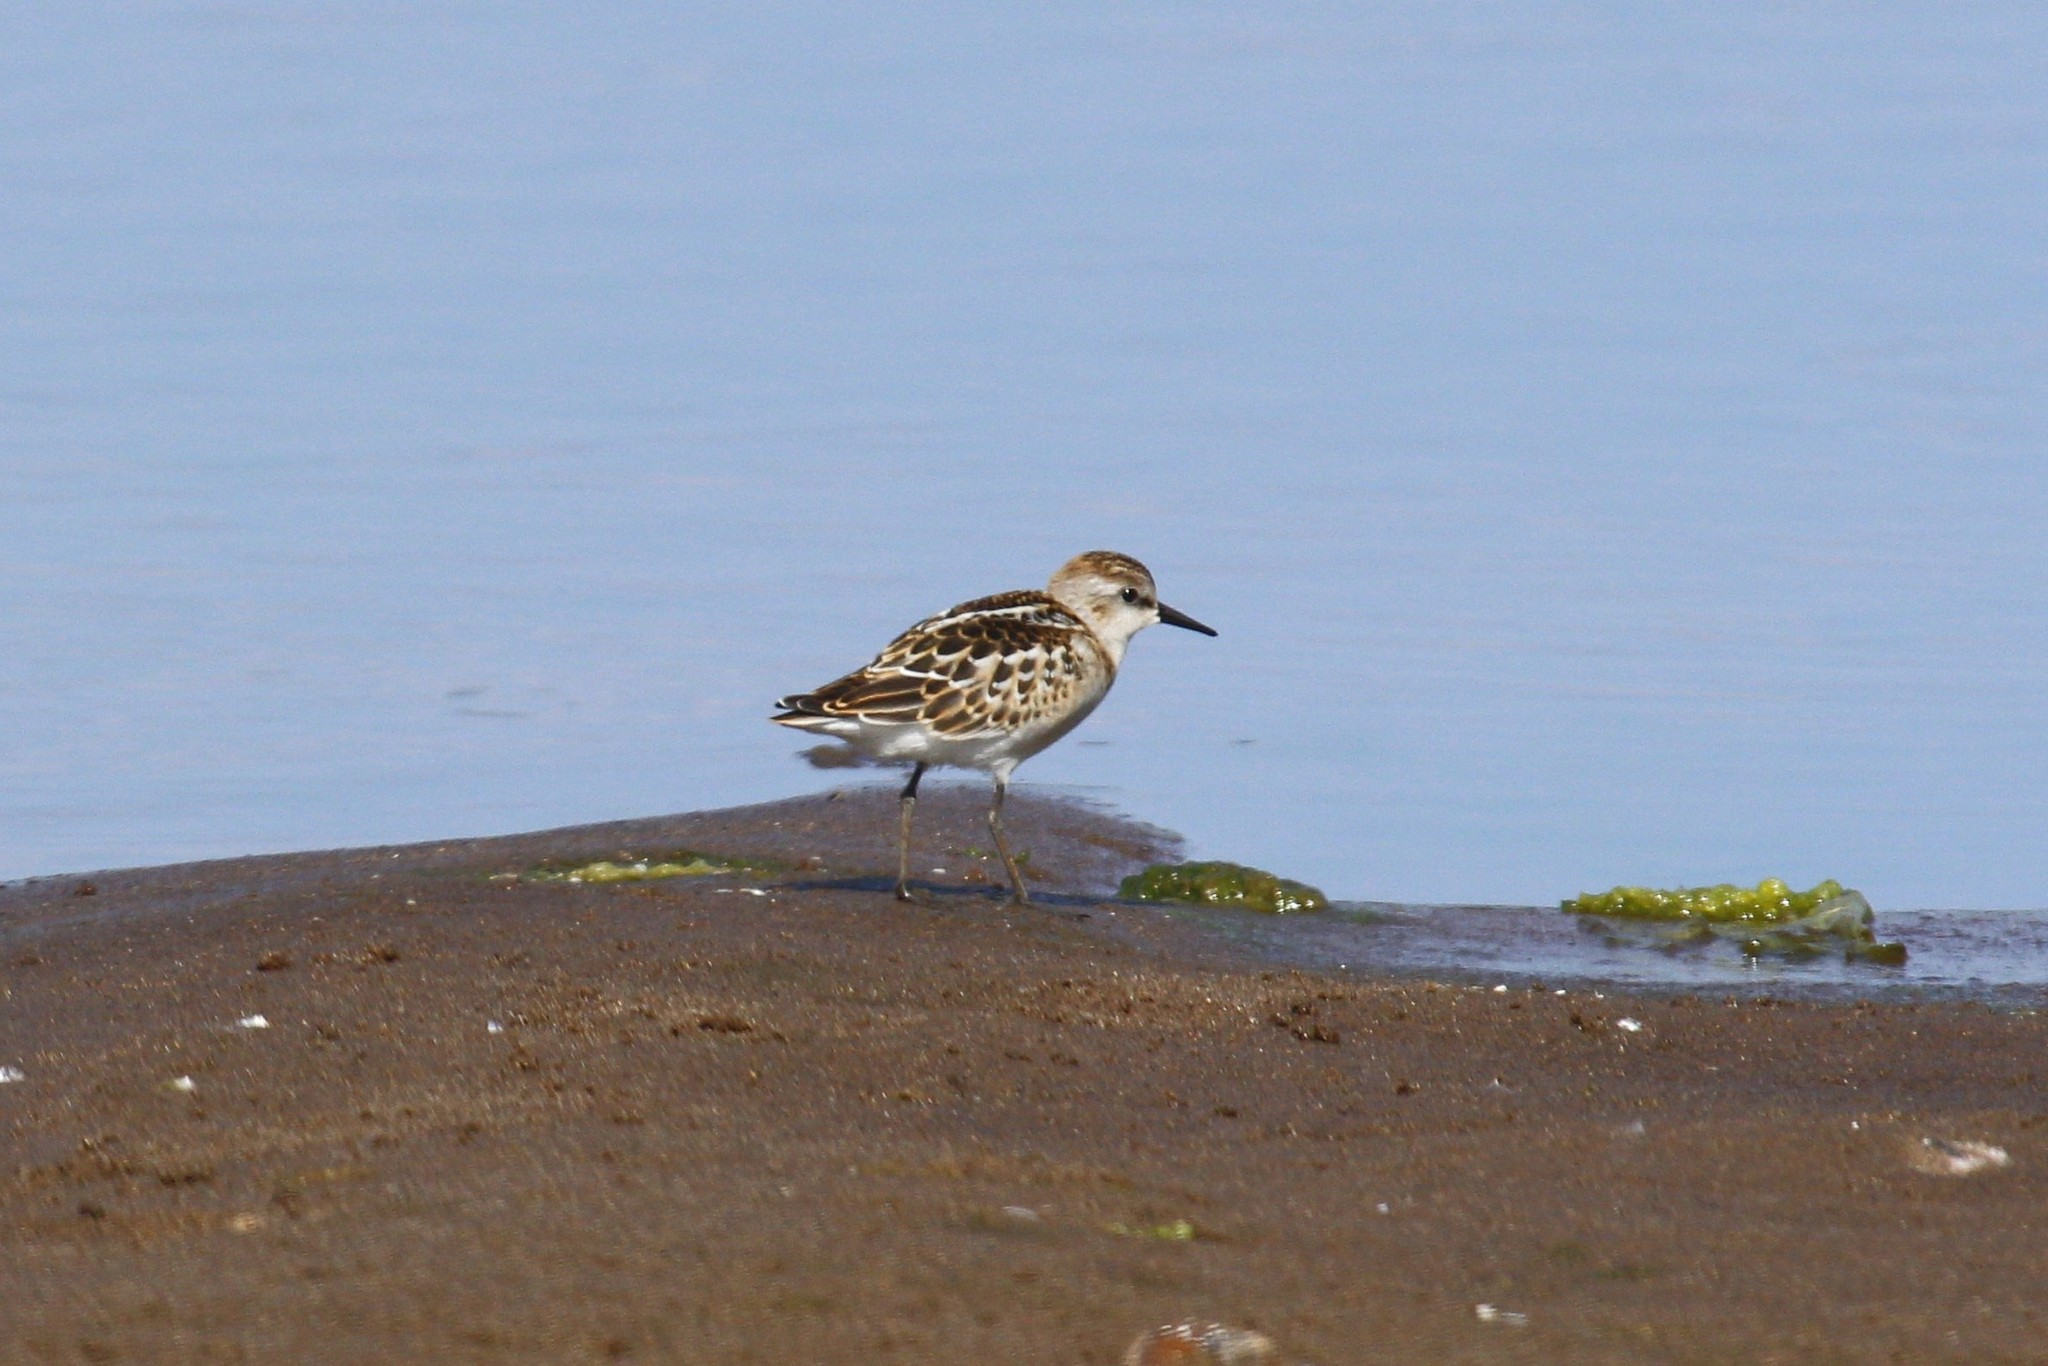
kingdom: Animalia
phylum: Chordata
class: Aves
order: Charadriiformes
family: Scolopacidae
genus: Calidris
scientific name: Calidris minuta
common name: Little stint
